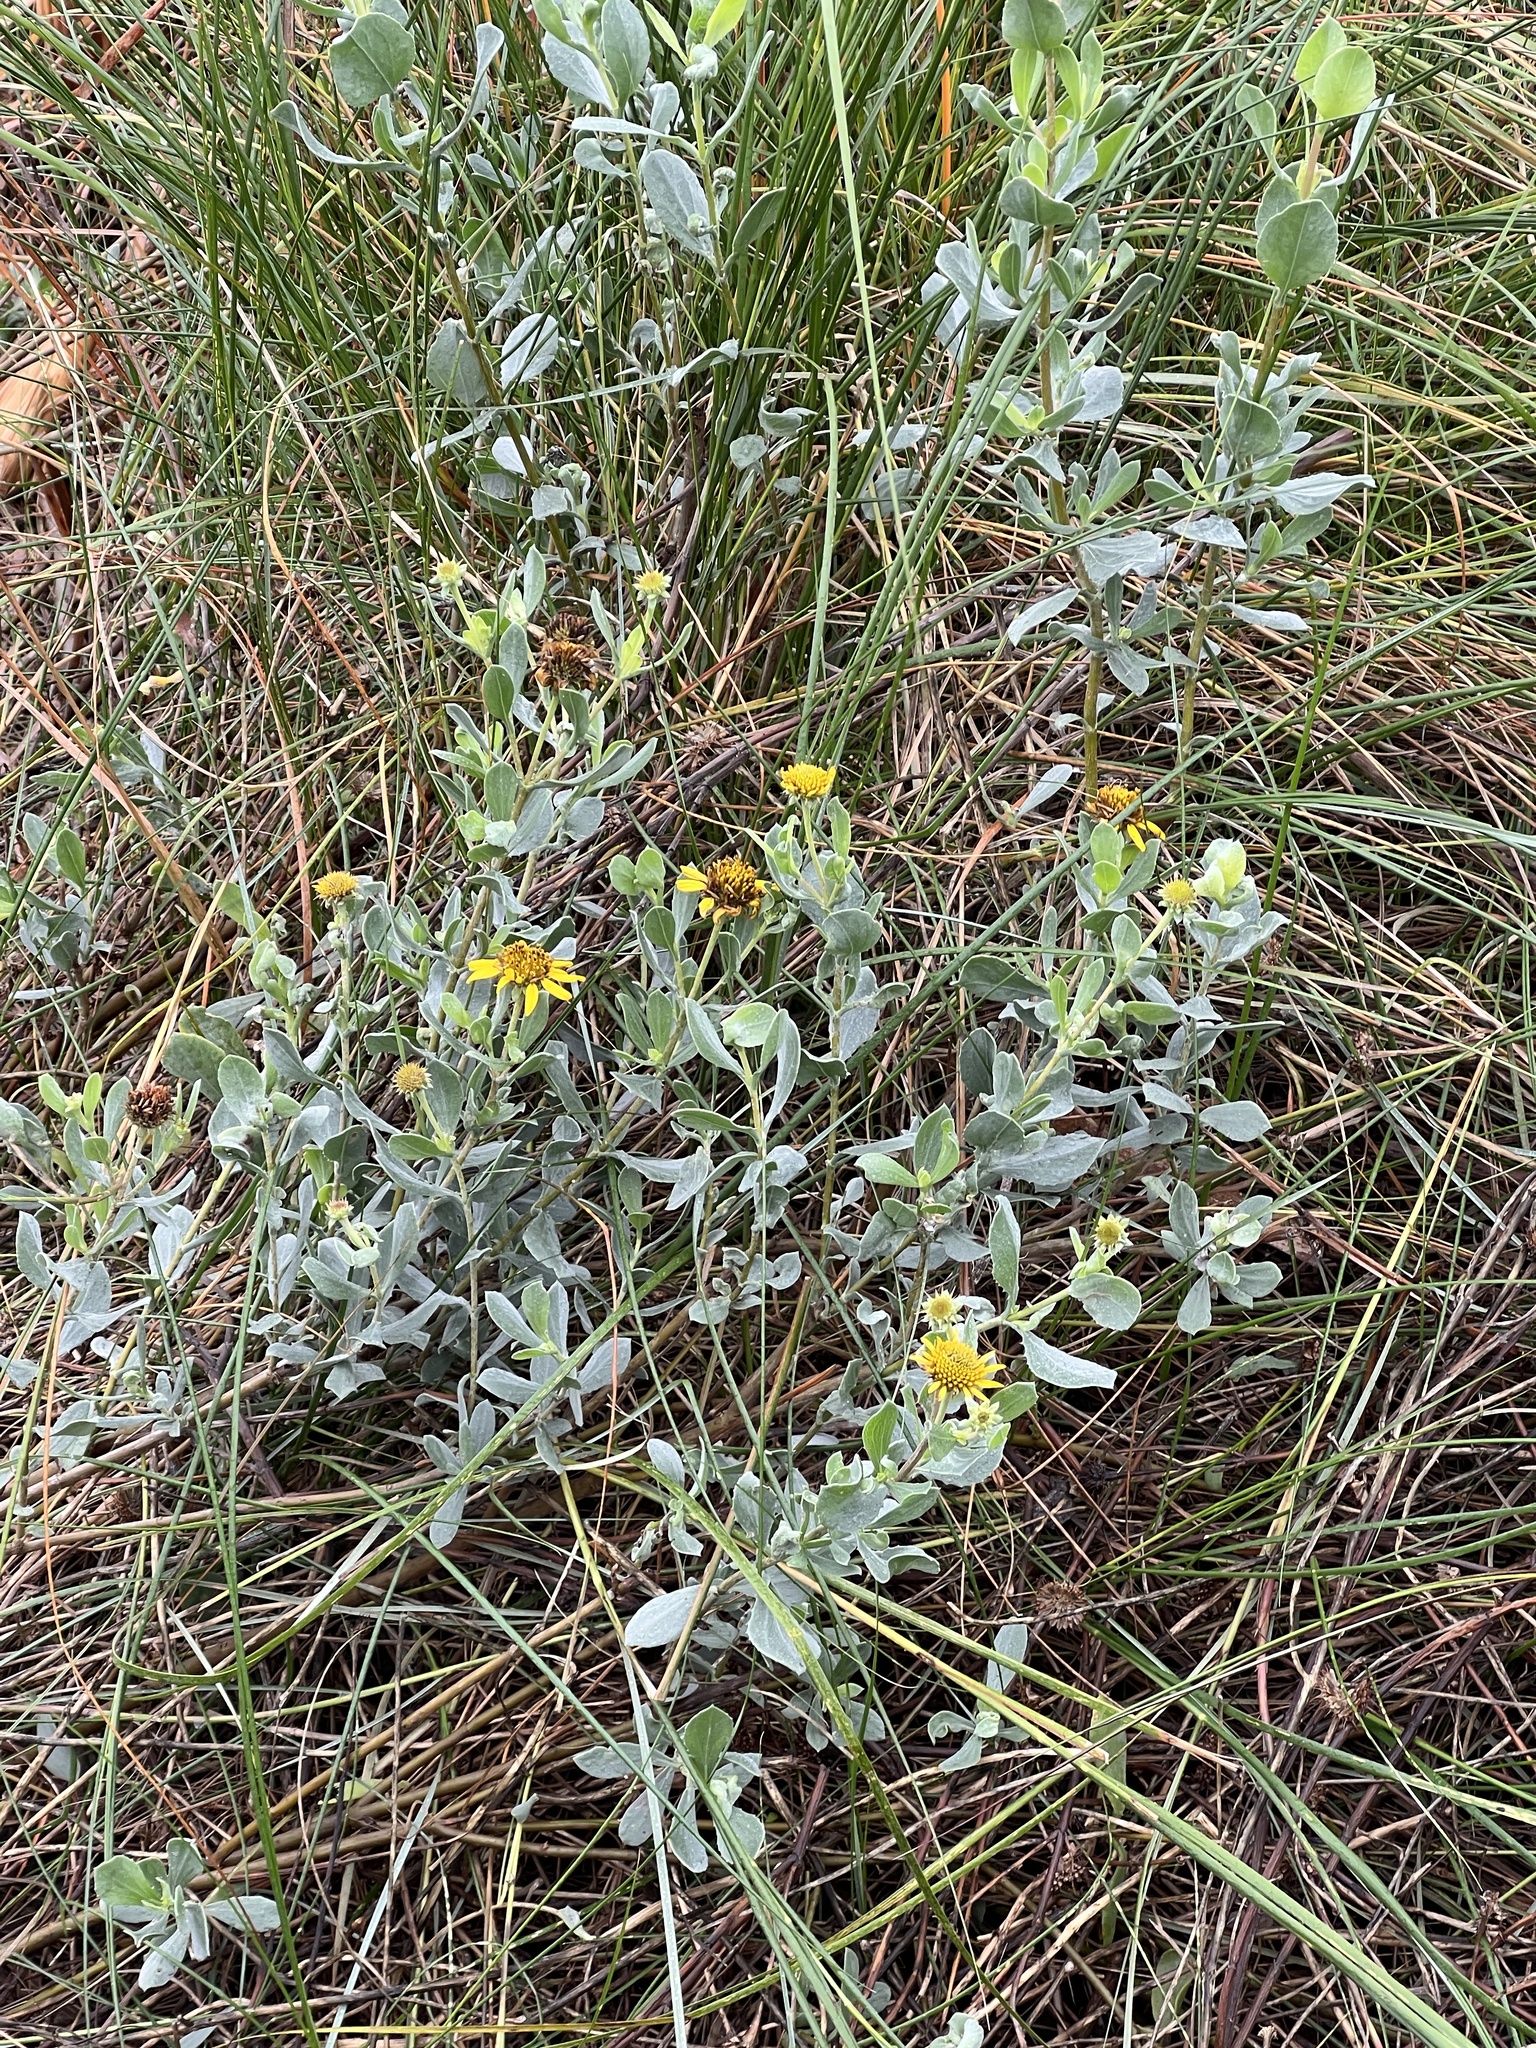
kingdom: Plantae
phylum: Tracheophyta
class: Magnoliopsida
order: Asterales
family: Asteraceae
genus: Borrichia
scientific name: Borrichia frutescens
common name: Sea oxeye
